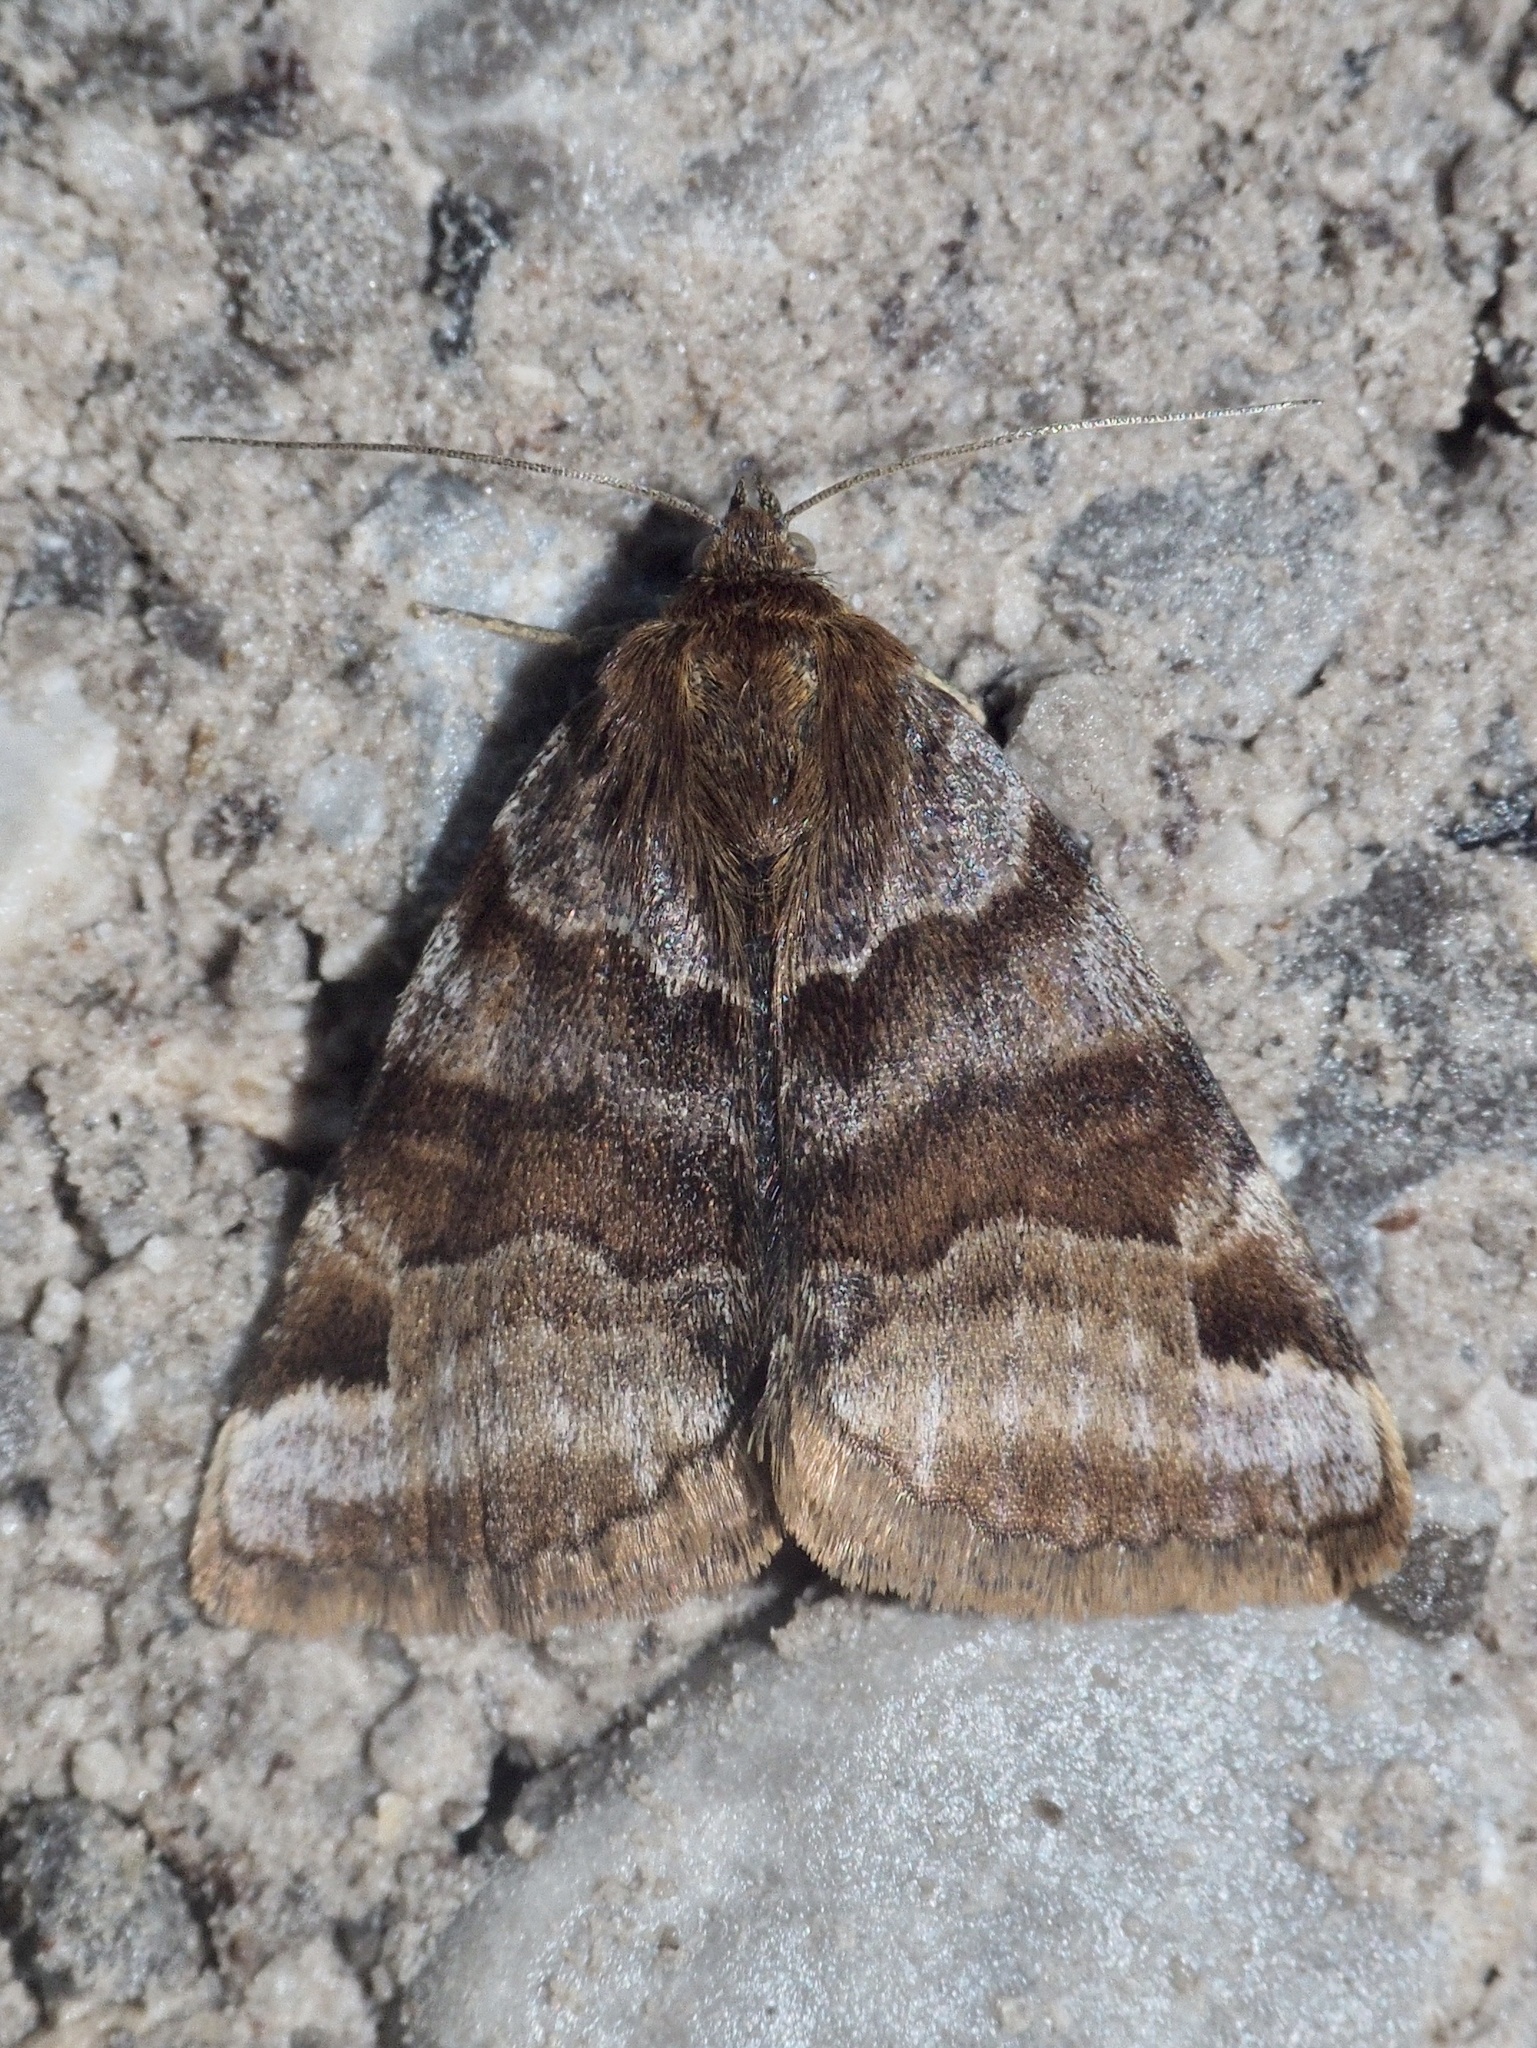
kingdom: Animalia
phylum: Arthropoda
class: Insecta
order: Lepidoptera
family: Erebidae
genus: Euclidia
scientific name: Euclidia glyphica
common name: Burnet companion
